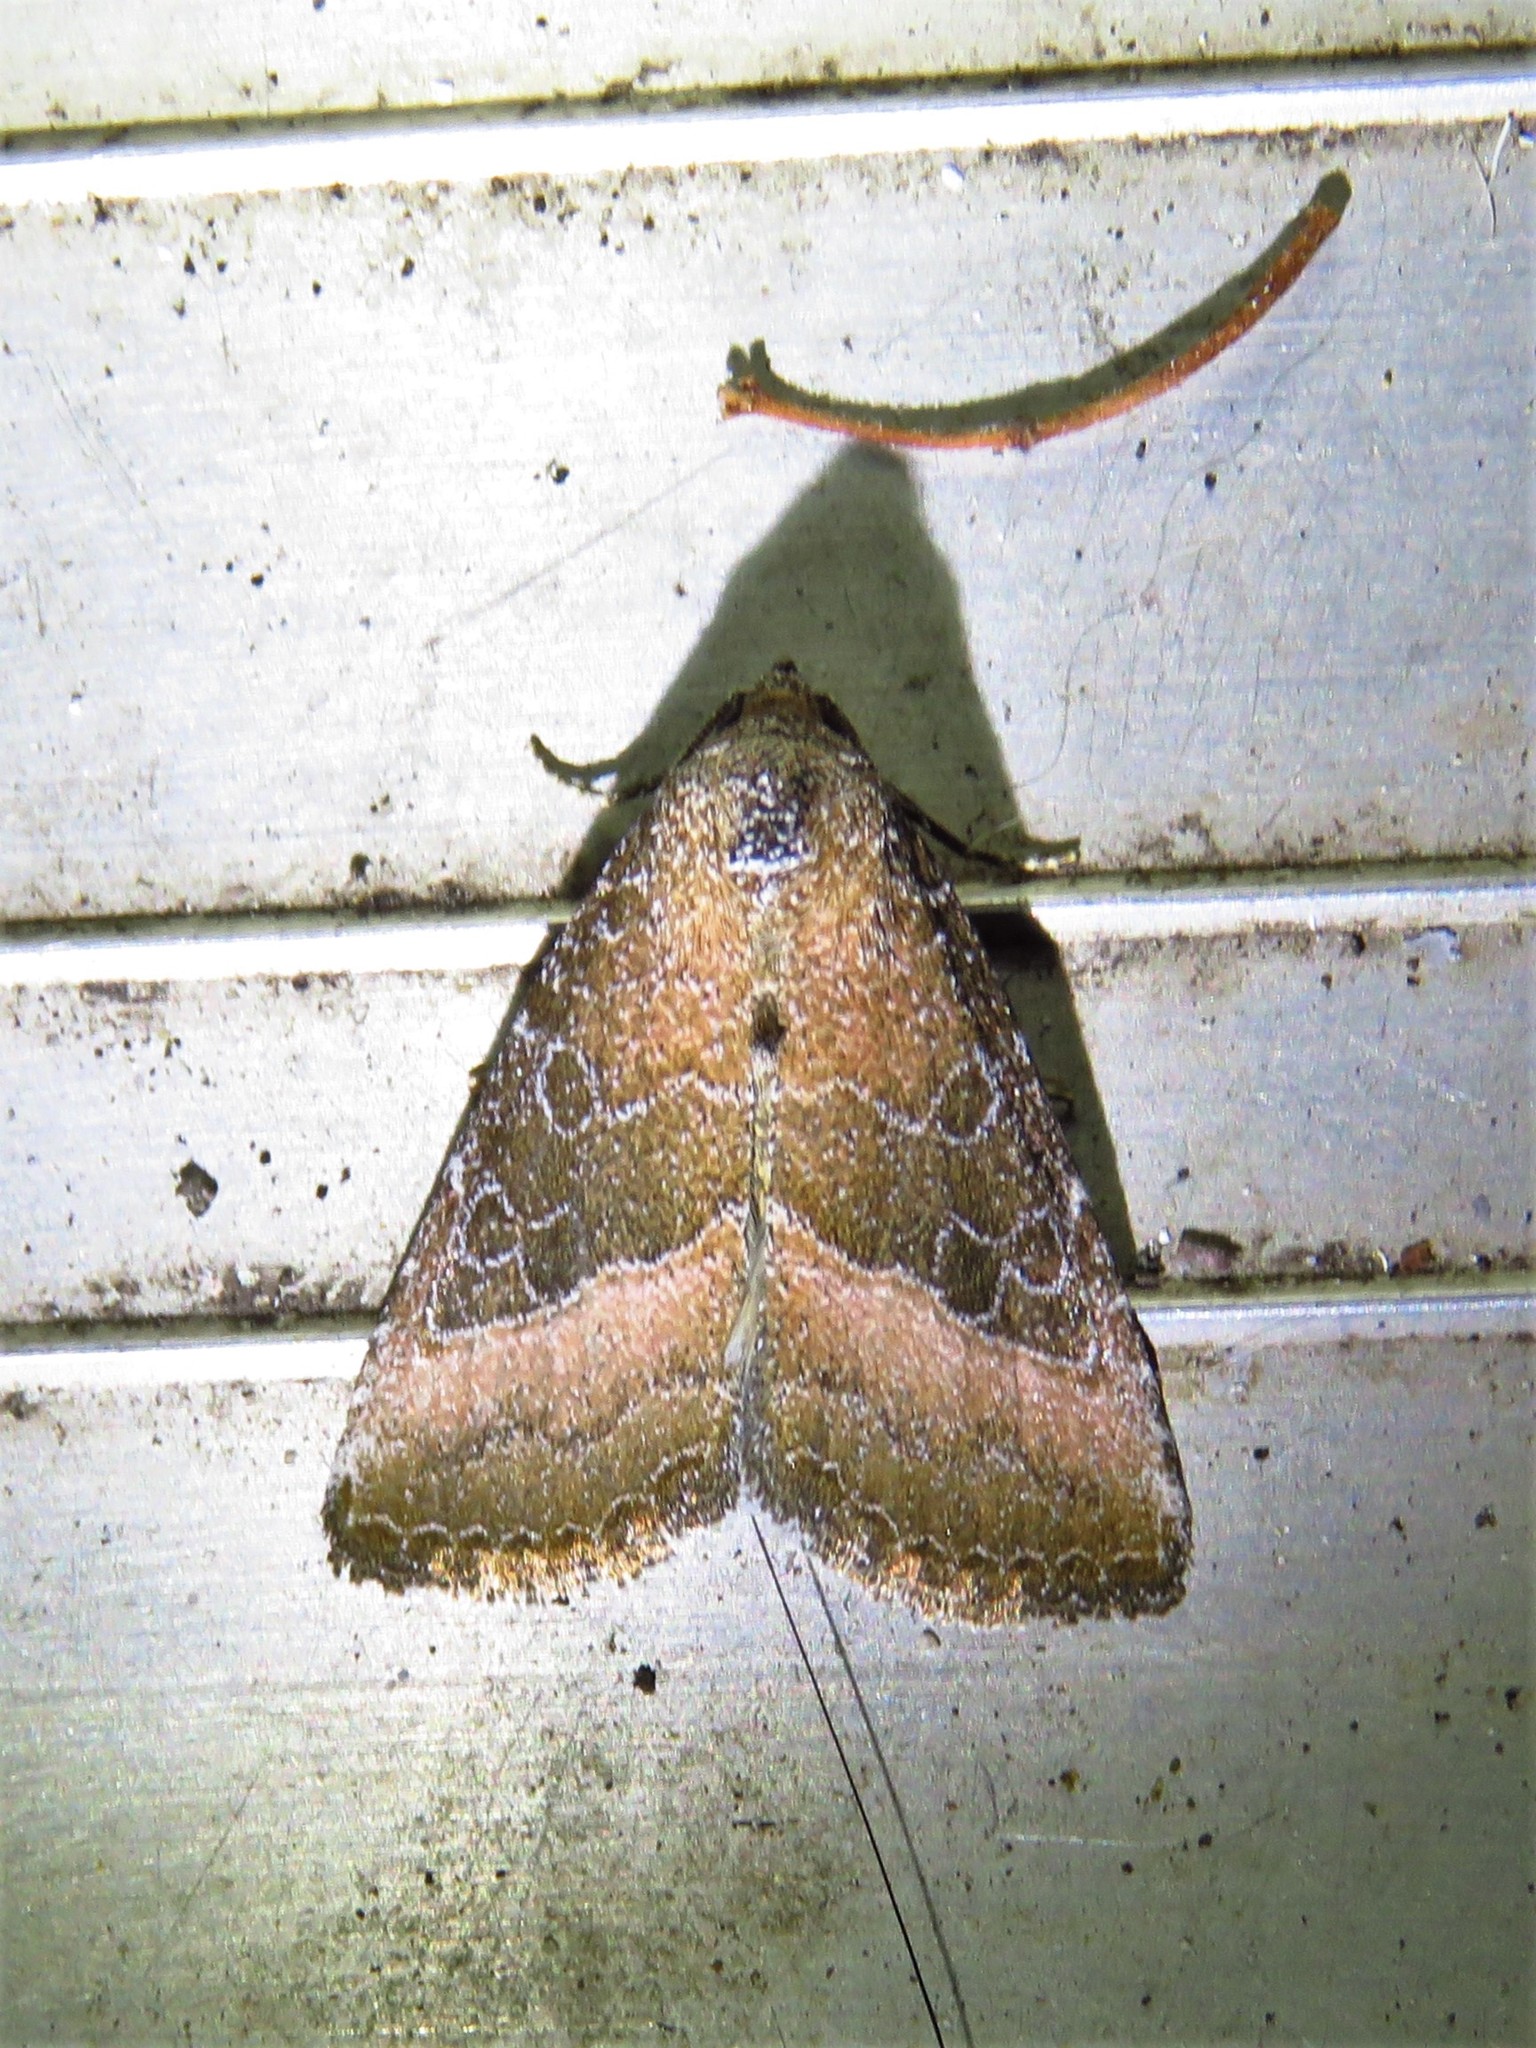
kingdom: Animalia
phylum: Arthropoda
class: Insecta
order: Lepidoptera
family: Noctuidae
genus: Ogdoconta
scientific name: Ogdoconta cinereola
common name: Common pinkband
